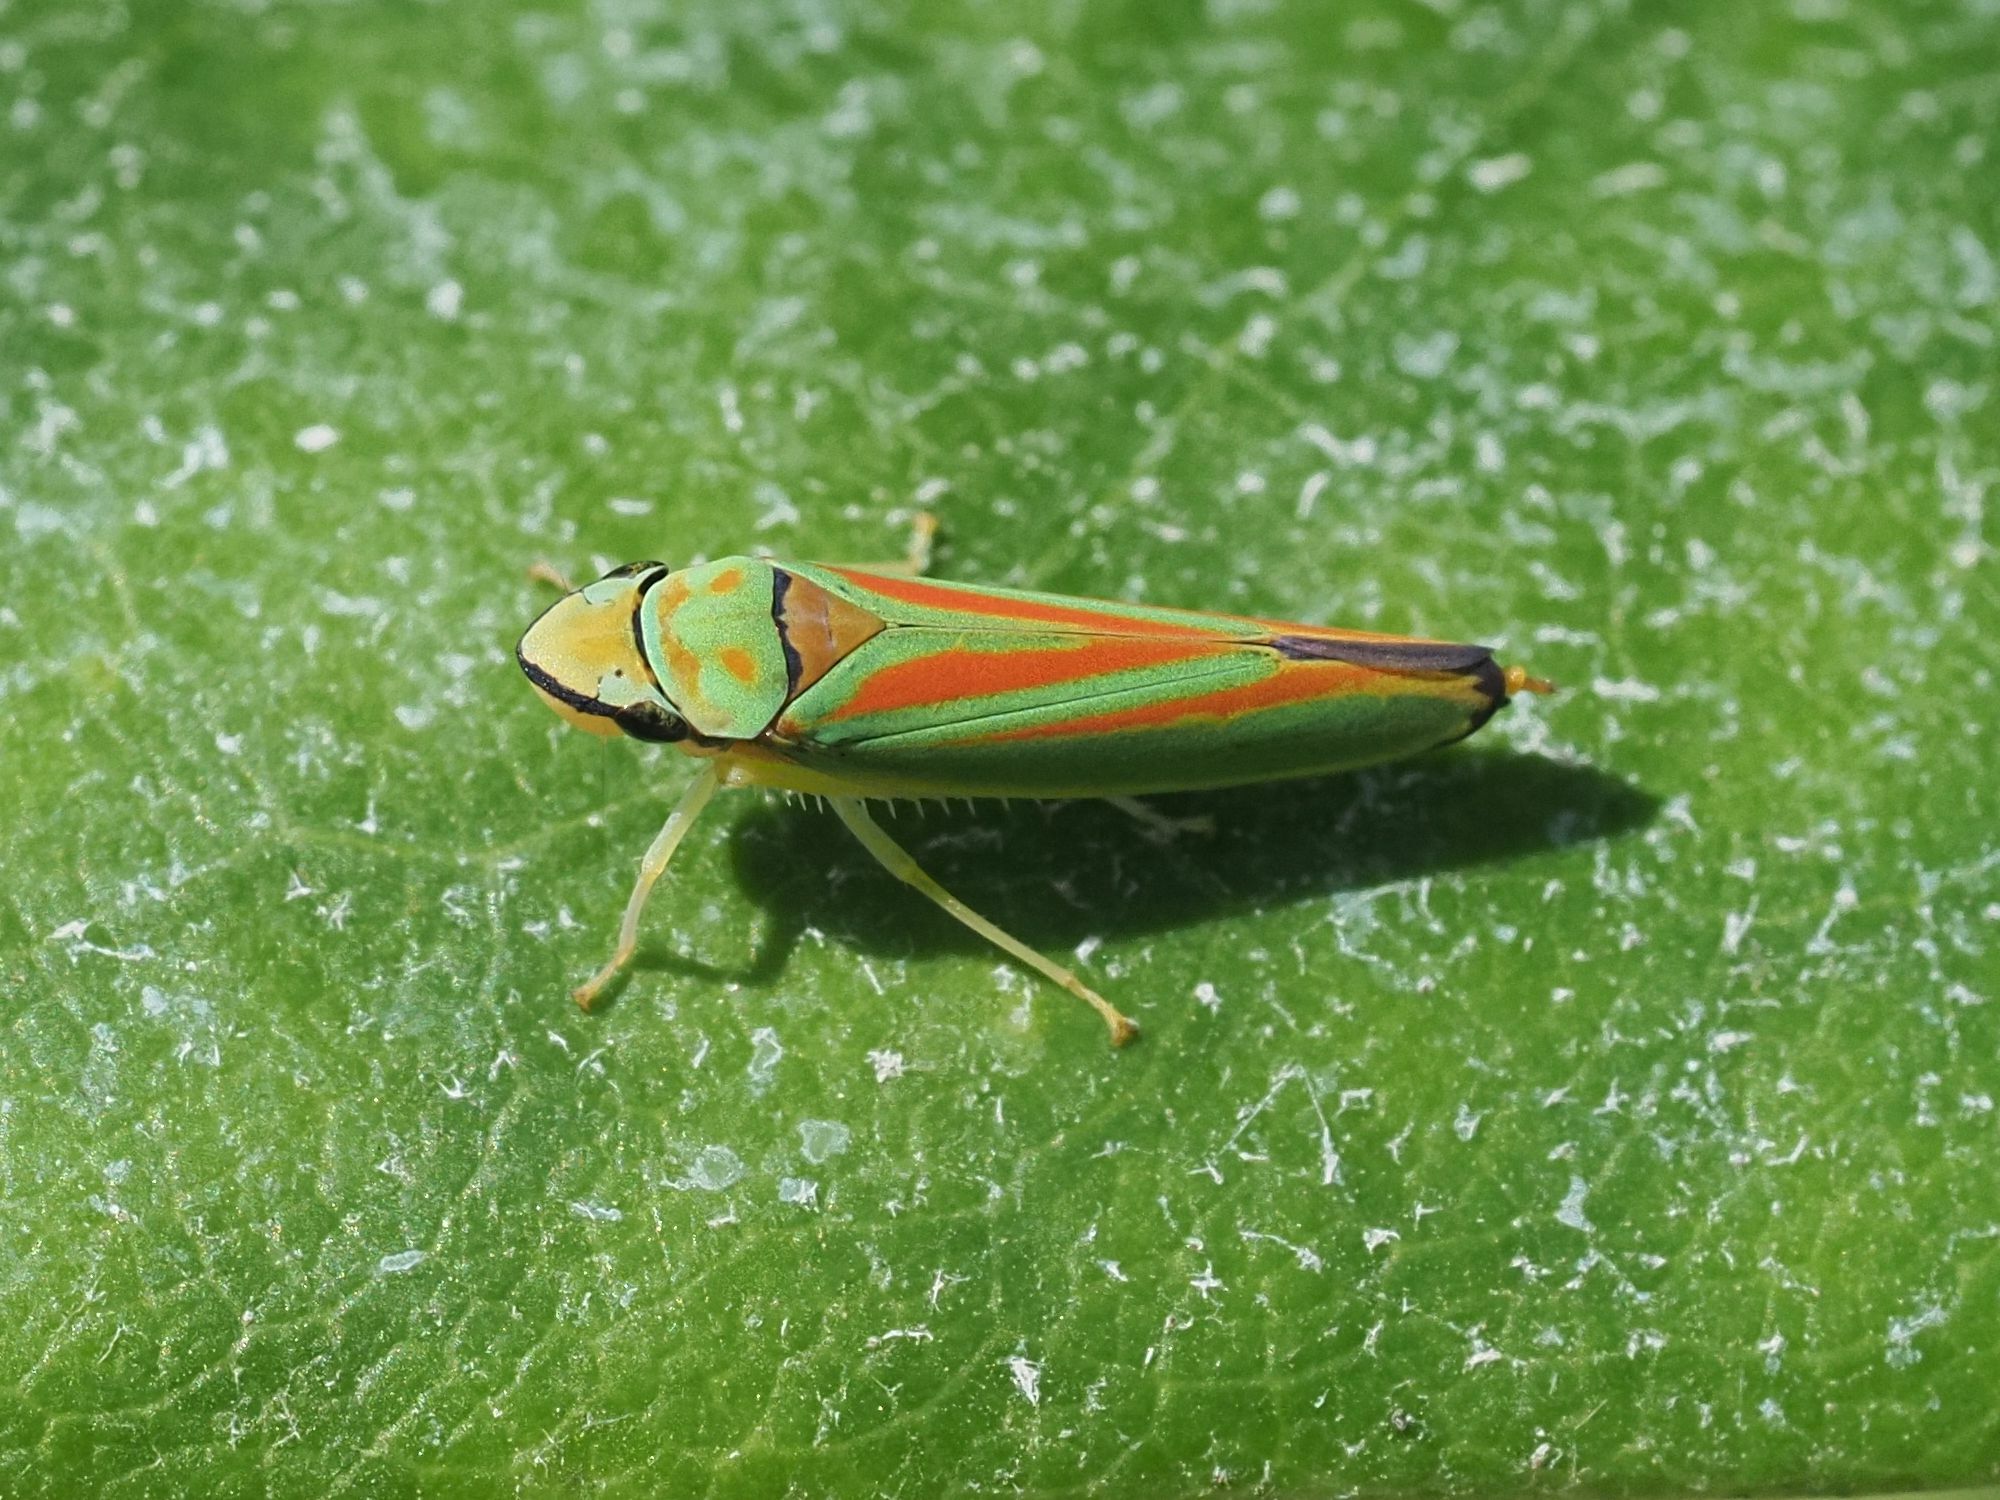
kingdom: Animalia
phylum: Arthropoda
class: Insecta
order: Hemiptera
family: Cicadellidae
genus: Graphocephala
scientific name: Graphocephala fennahi
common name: Rhododendron leafhopper
